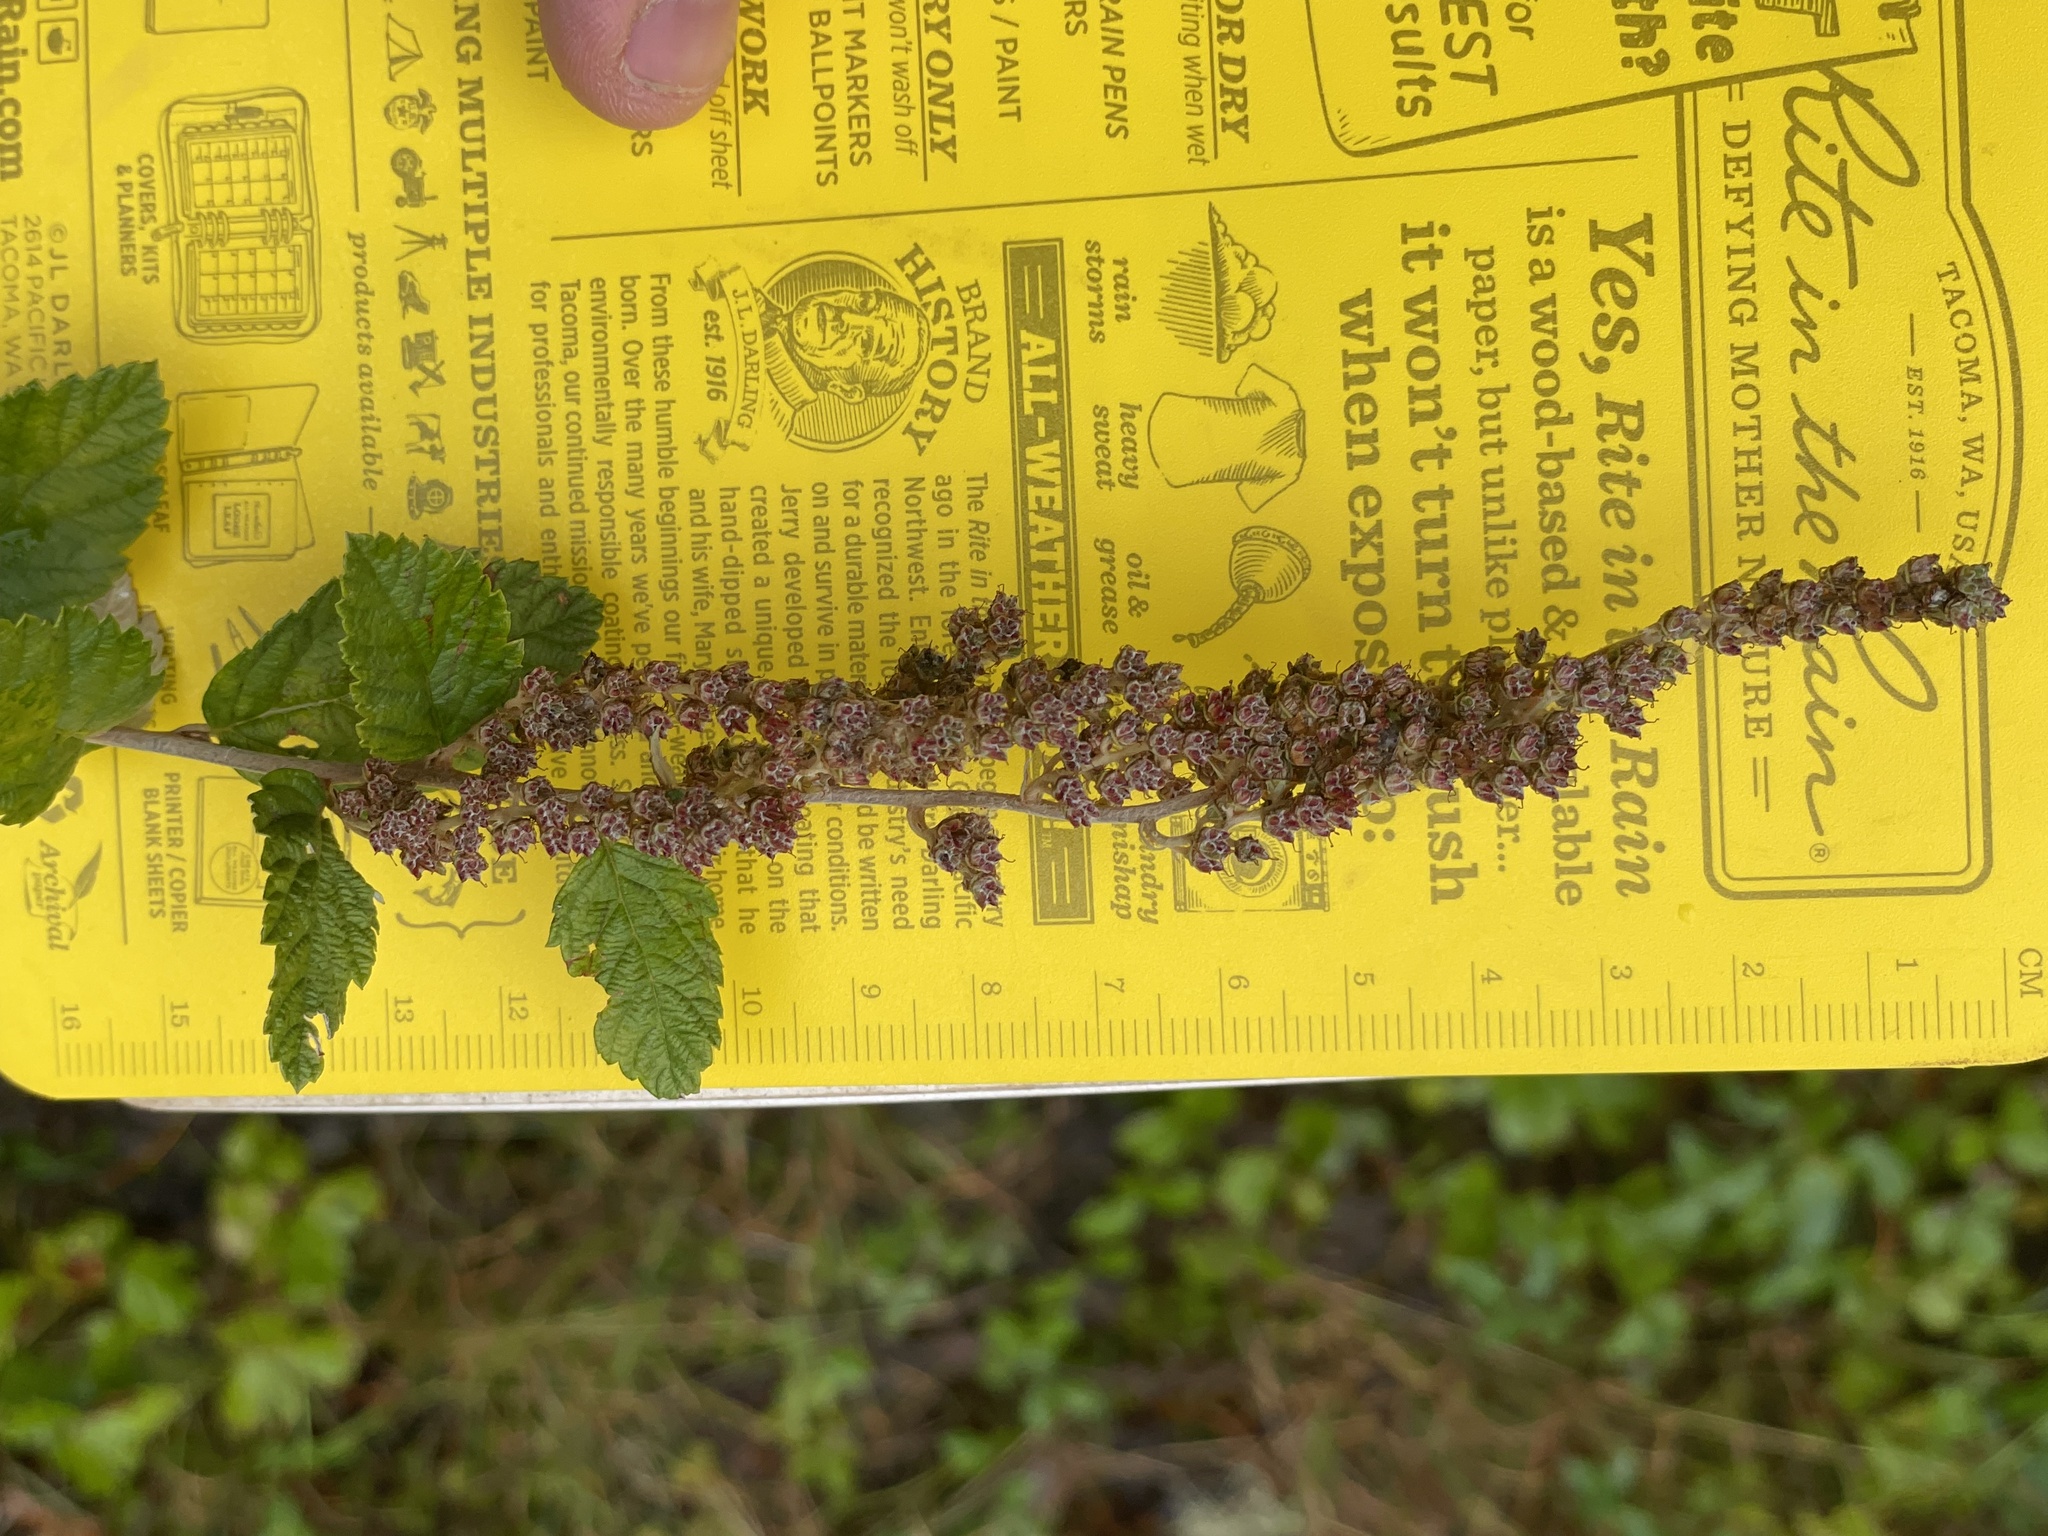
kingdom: Plantae
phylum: Tracheophyta
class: Magnoliopsida
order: Rosales
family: Rosaceae
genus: Spiraea
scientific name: Spiraea tomentosa
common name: Hardhack
